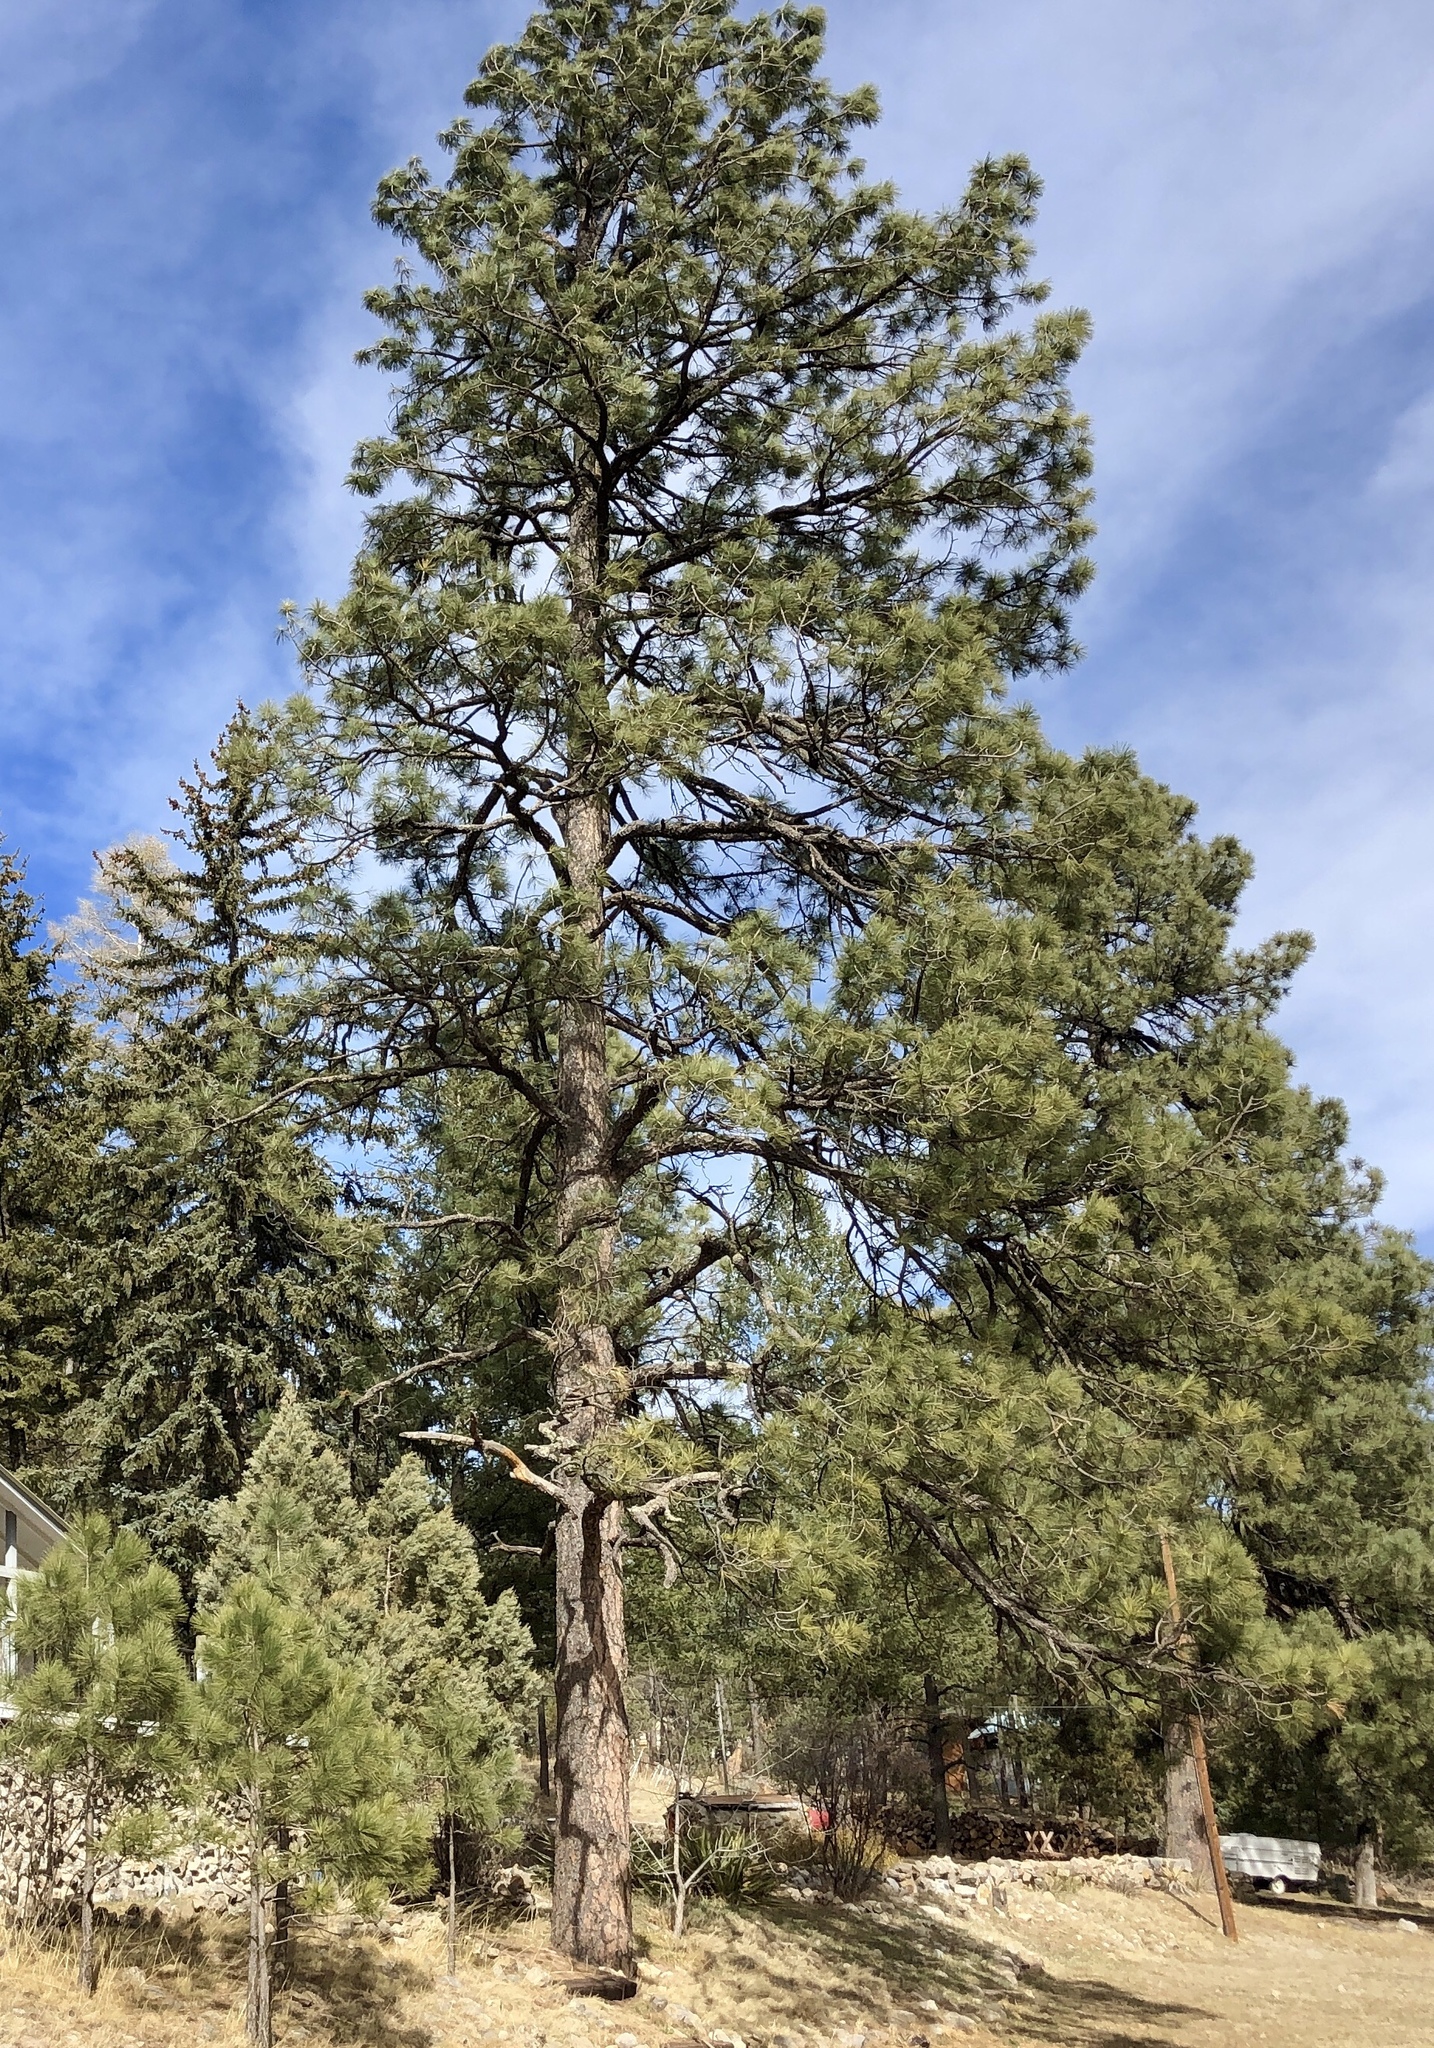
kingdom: Plantae
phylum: Tracheophyta
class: Pinopsida
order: Pinales
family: Pinaceae
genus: Pinus
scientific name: Pinus ponderosa
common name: Western yellow-pine
